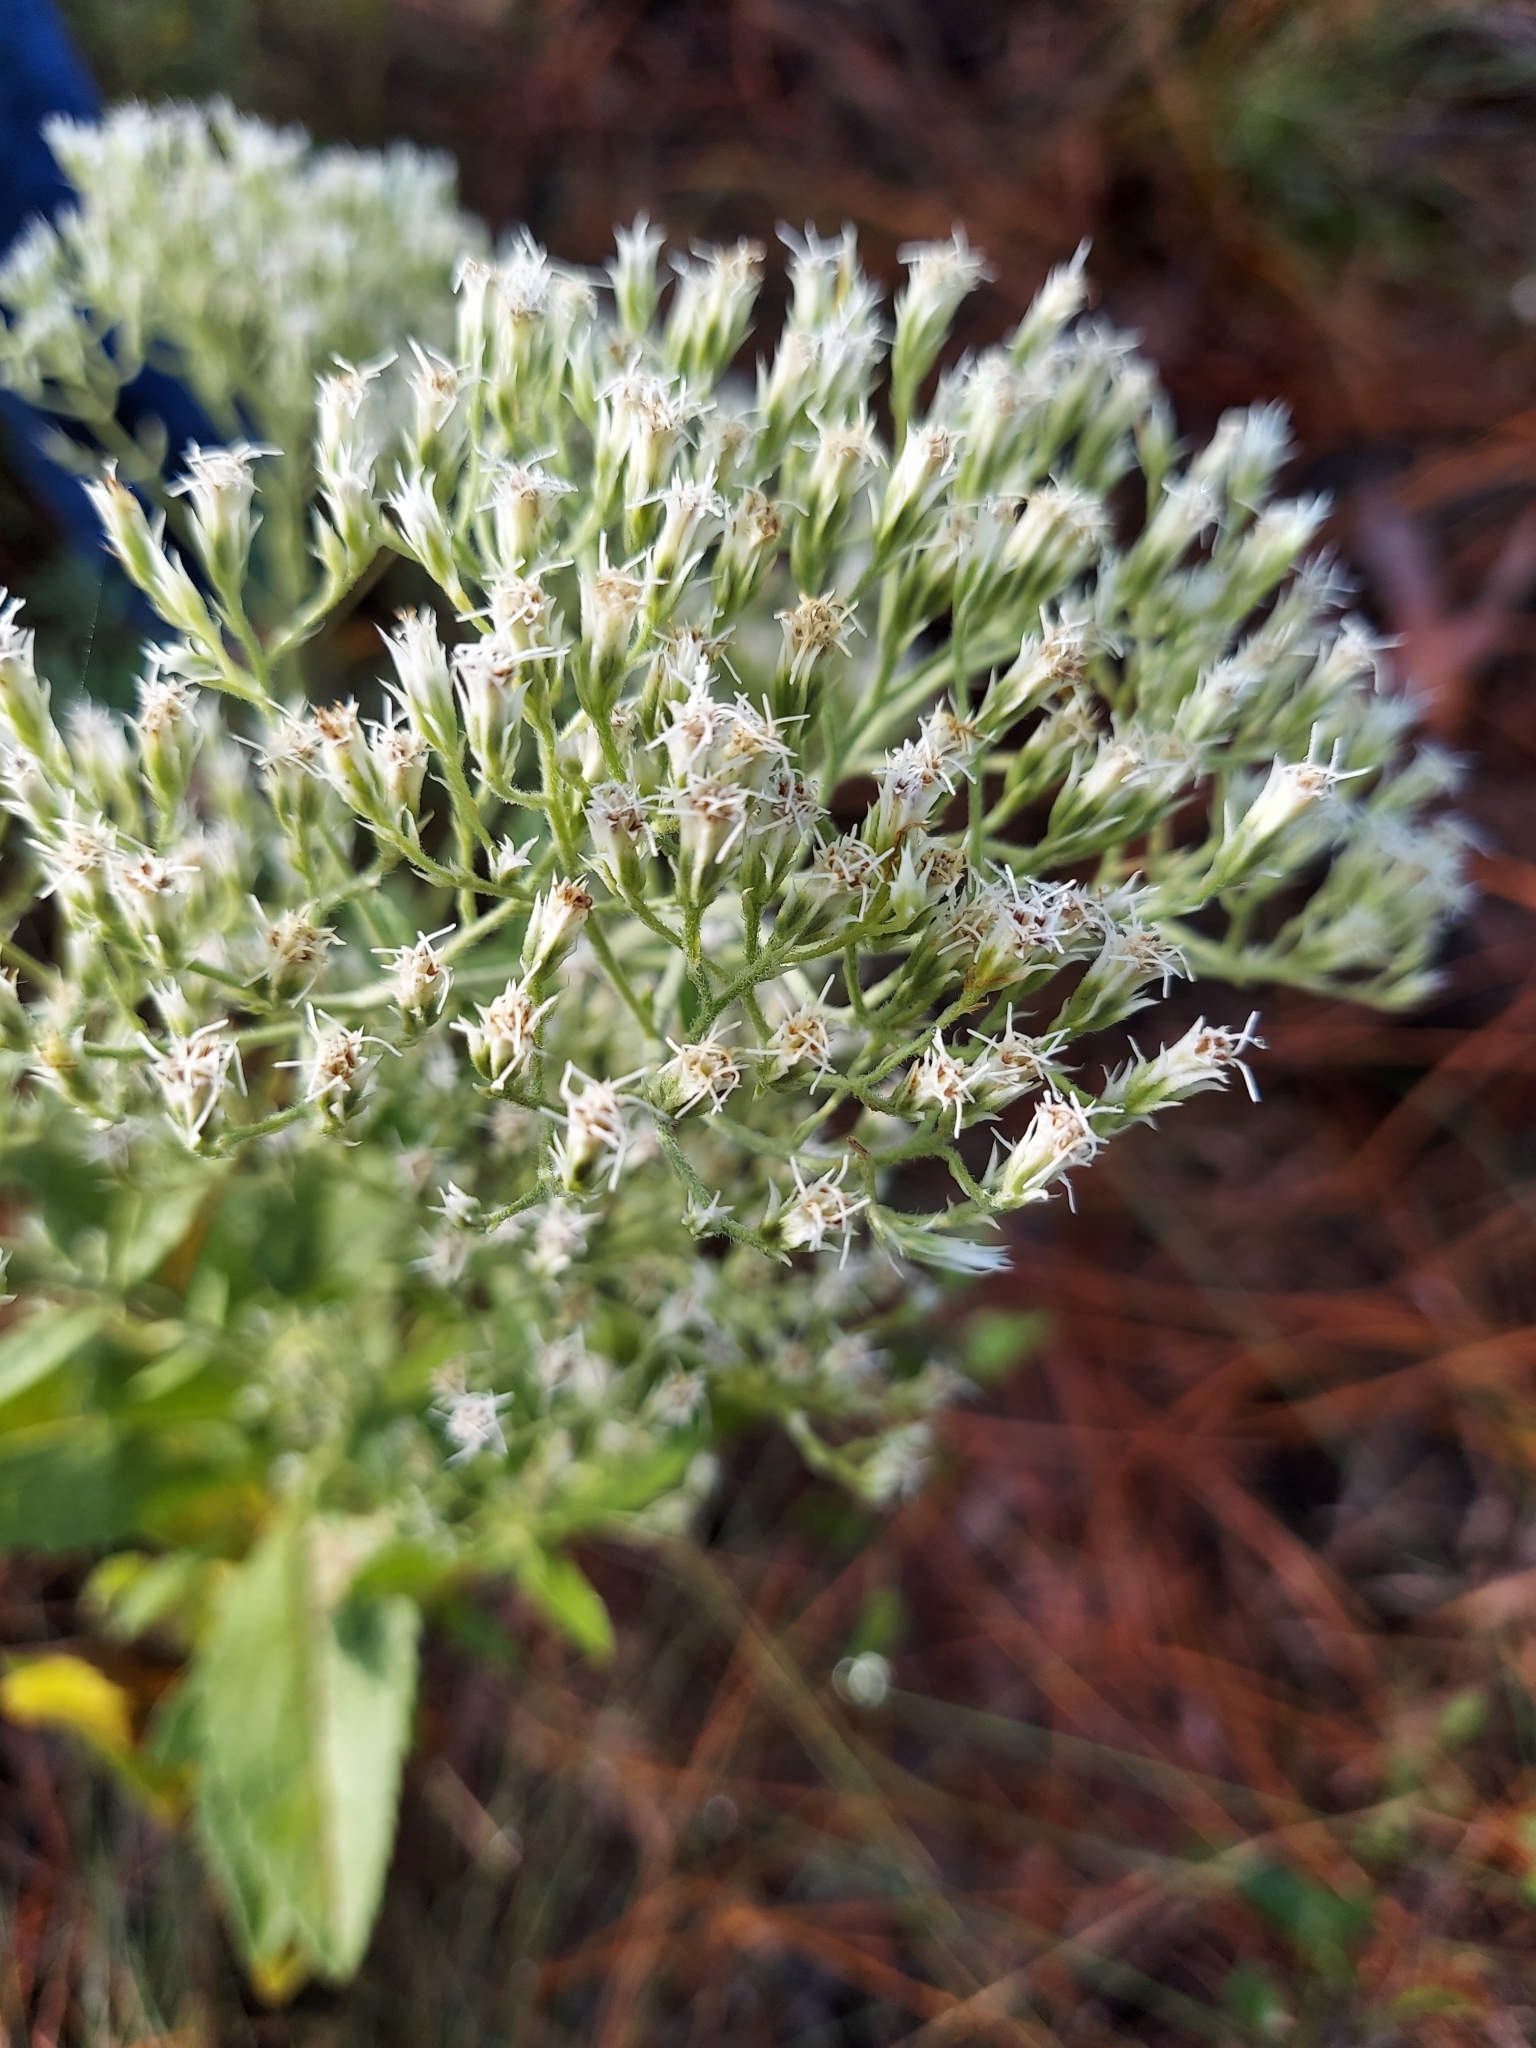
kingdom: Plantae
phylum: Tracheophyta
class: Magnoliopsida
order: Asterales
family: Asteraceae
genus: Eupatorium
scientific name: Eupatorium album
